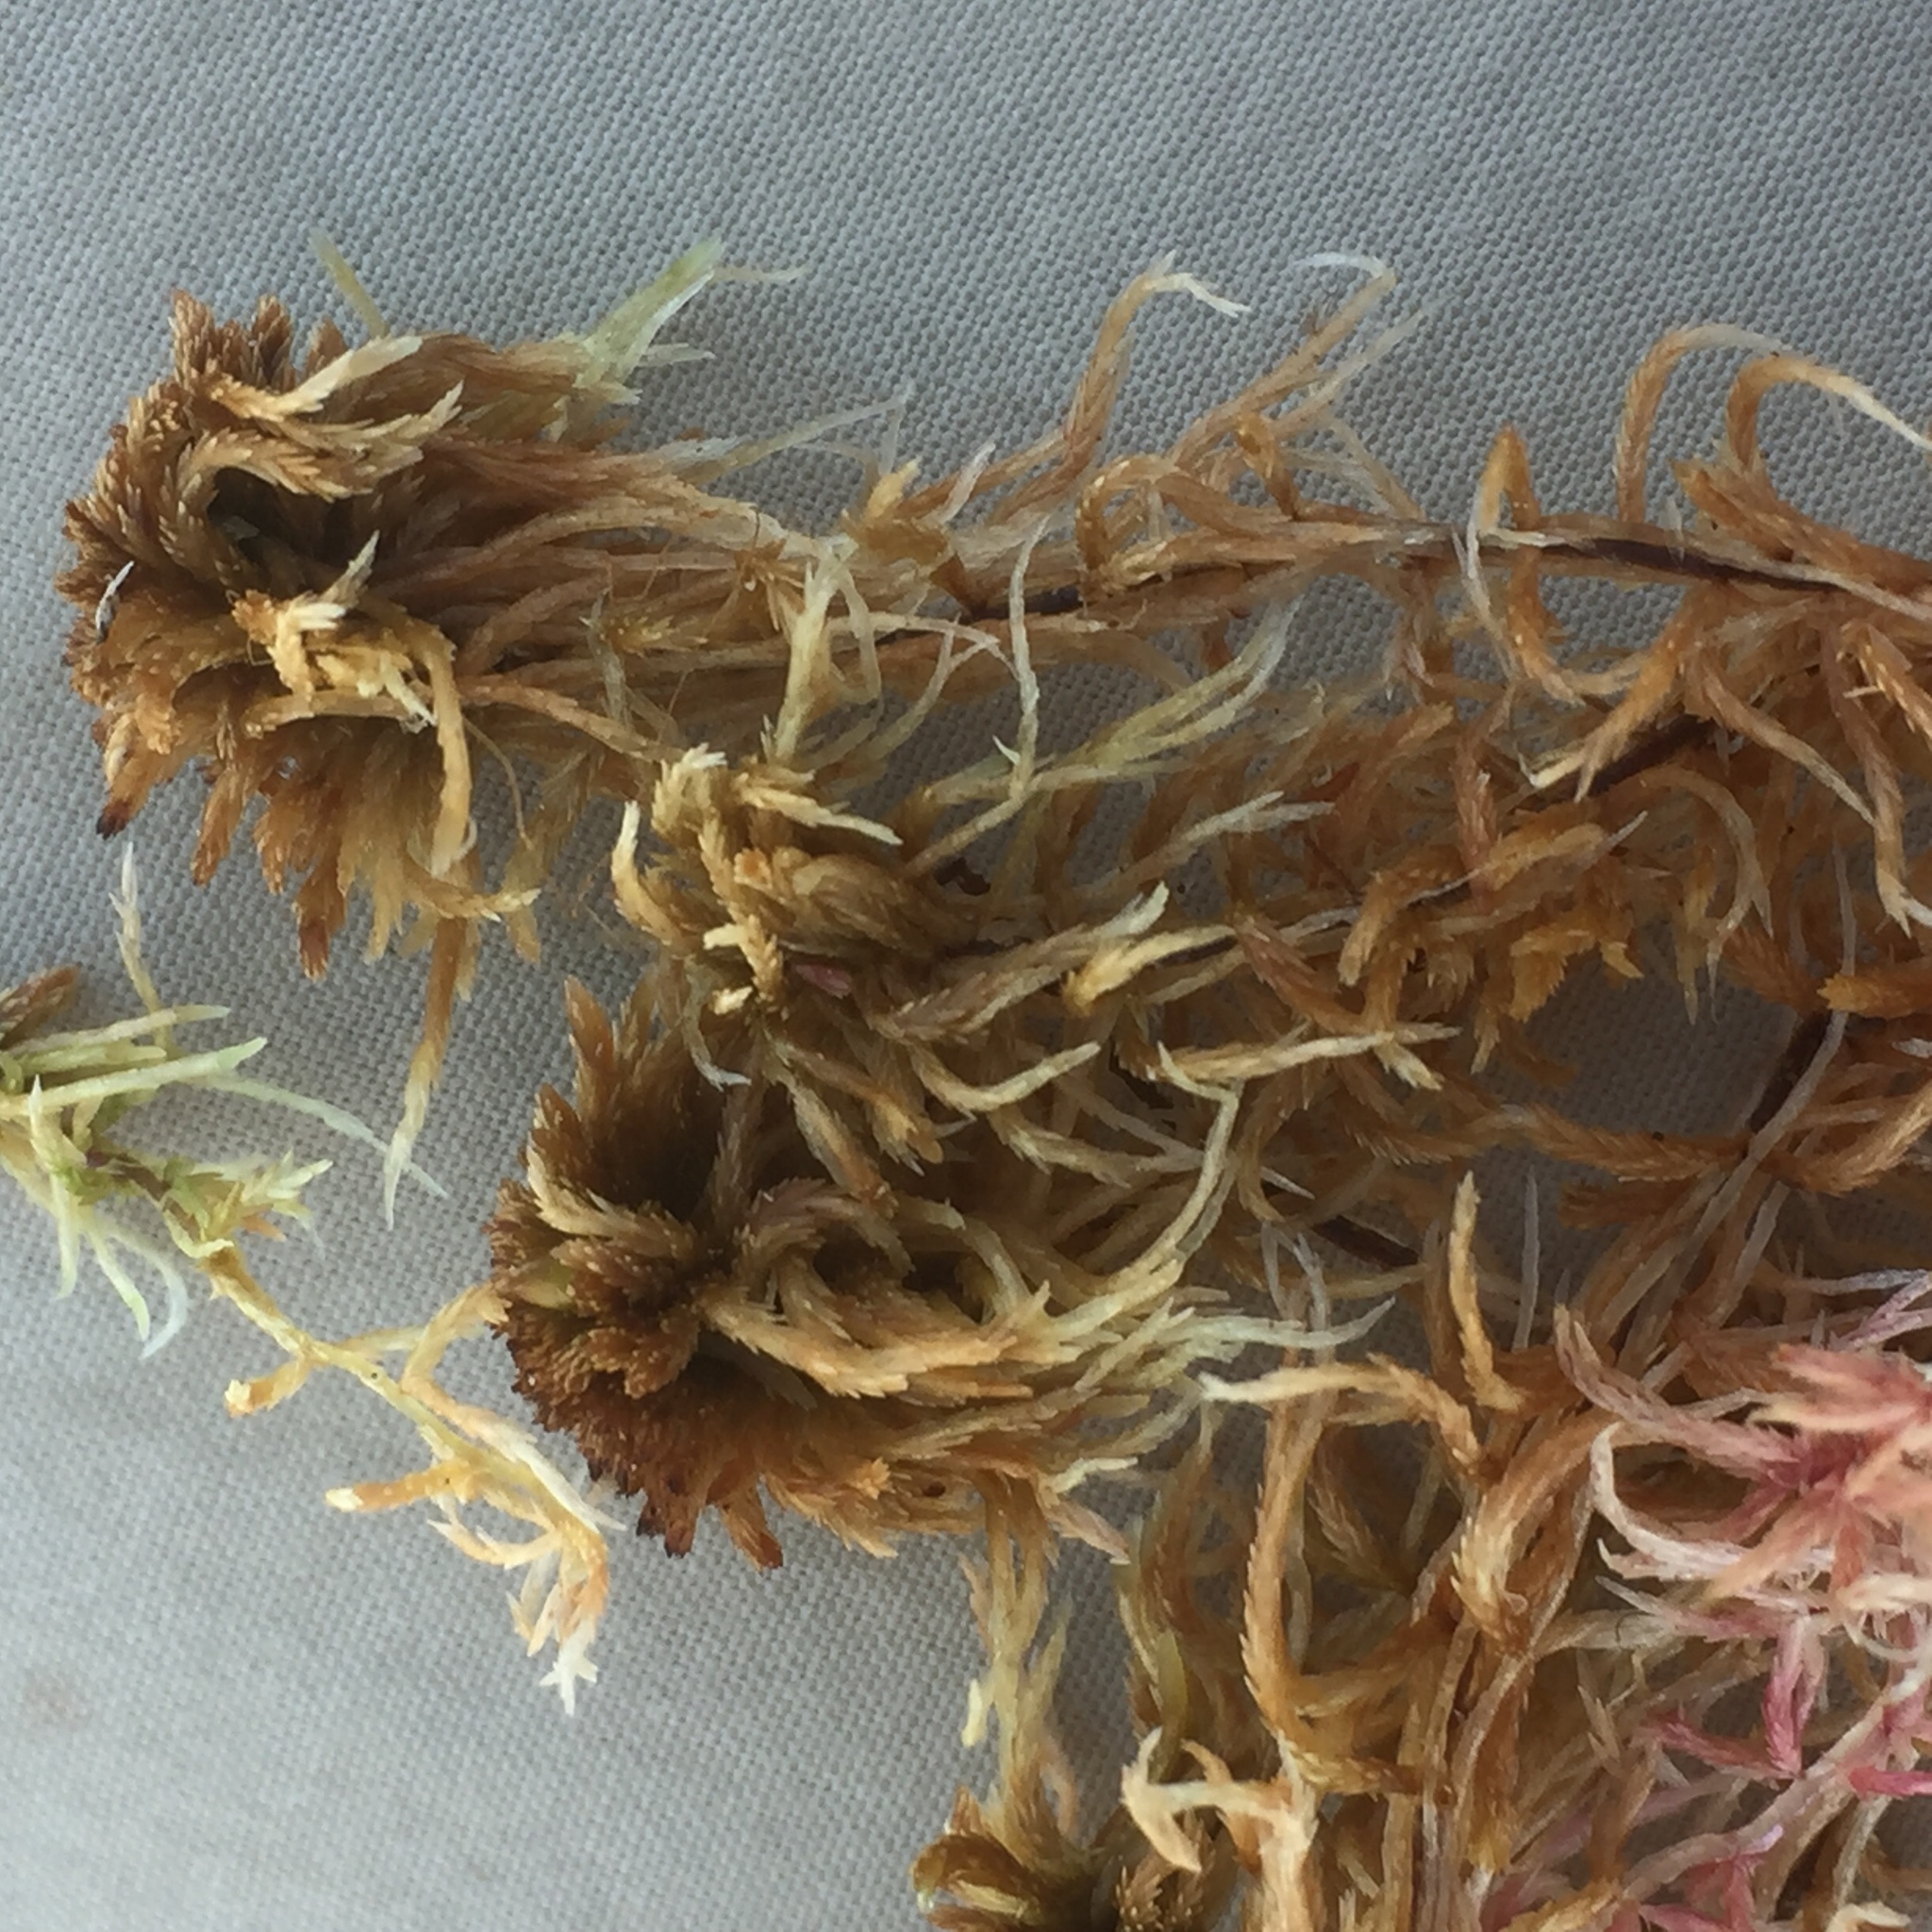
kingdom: Plantae
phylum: Bryophyta
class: Sphagnopsida
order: Sphagnales
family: Sphagnaceae
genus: Sphagnum
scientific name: Sphagnum fuscum
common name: Brown peat moss
